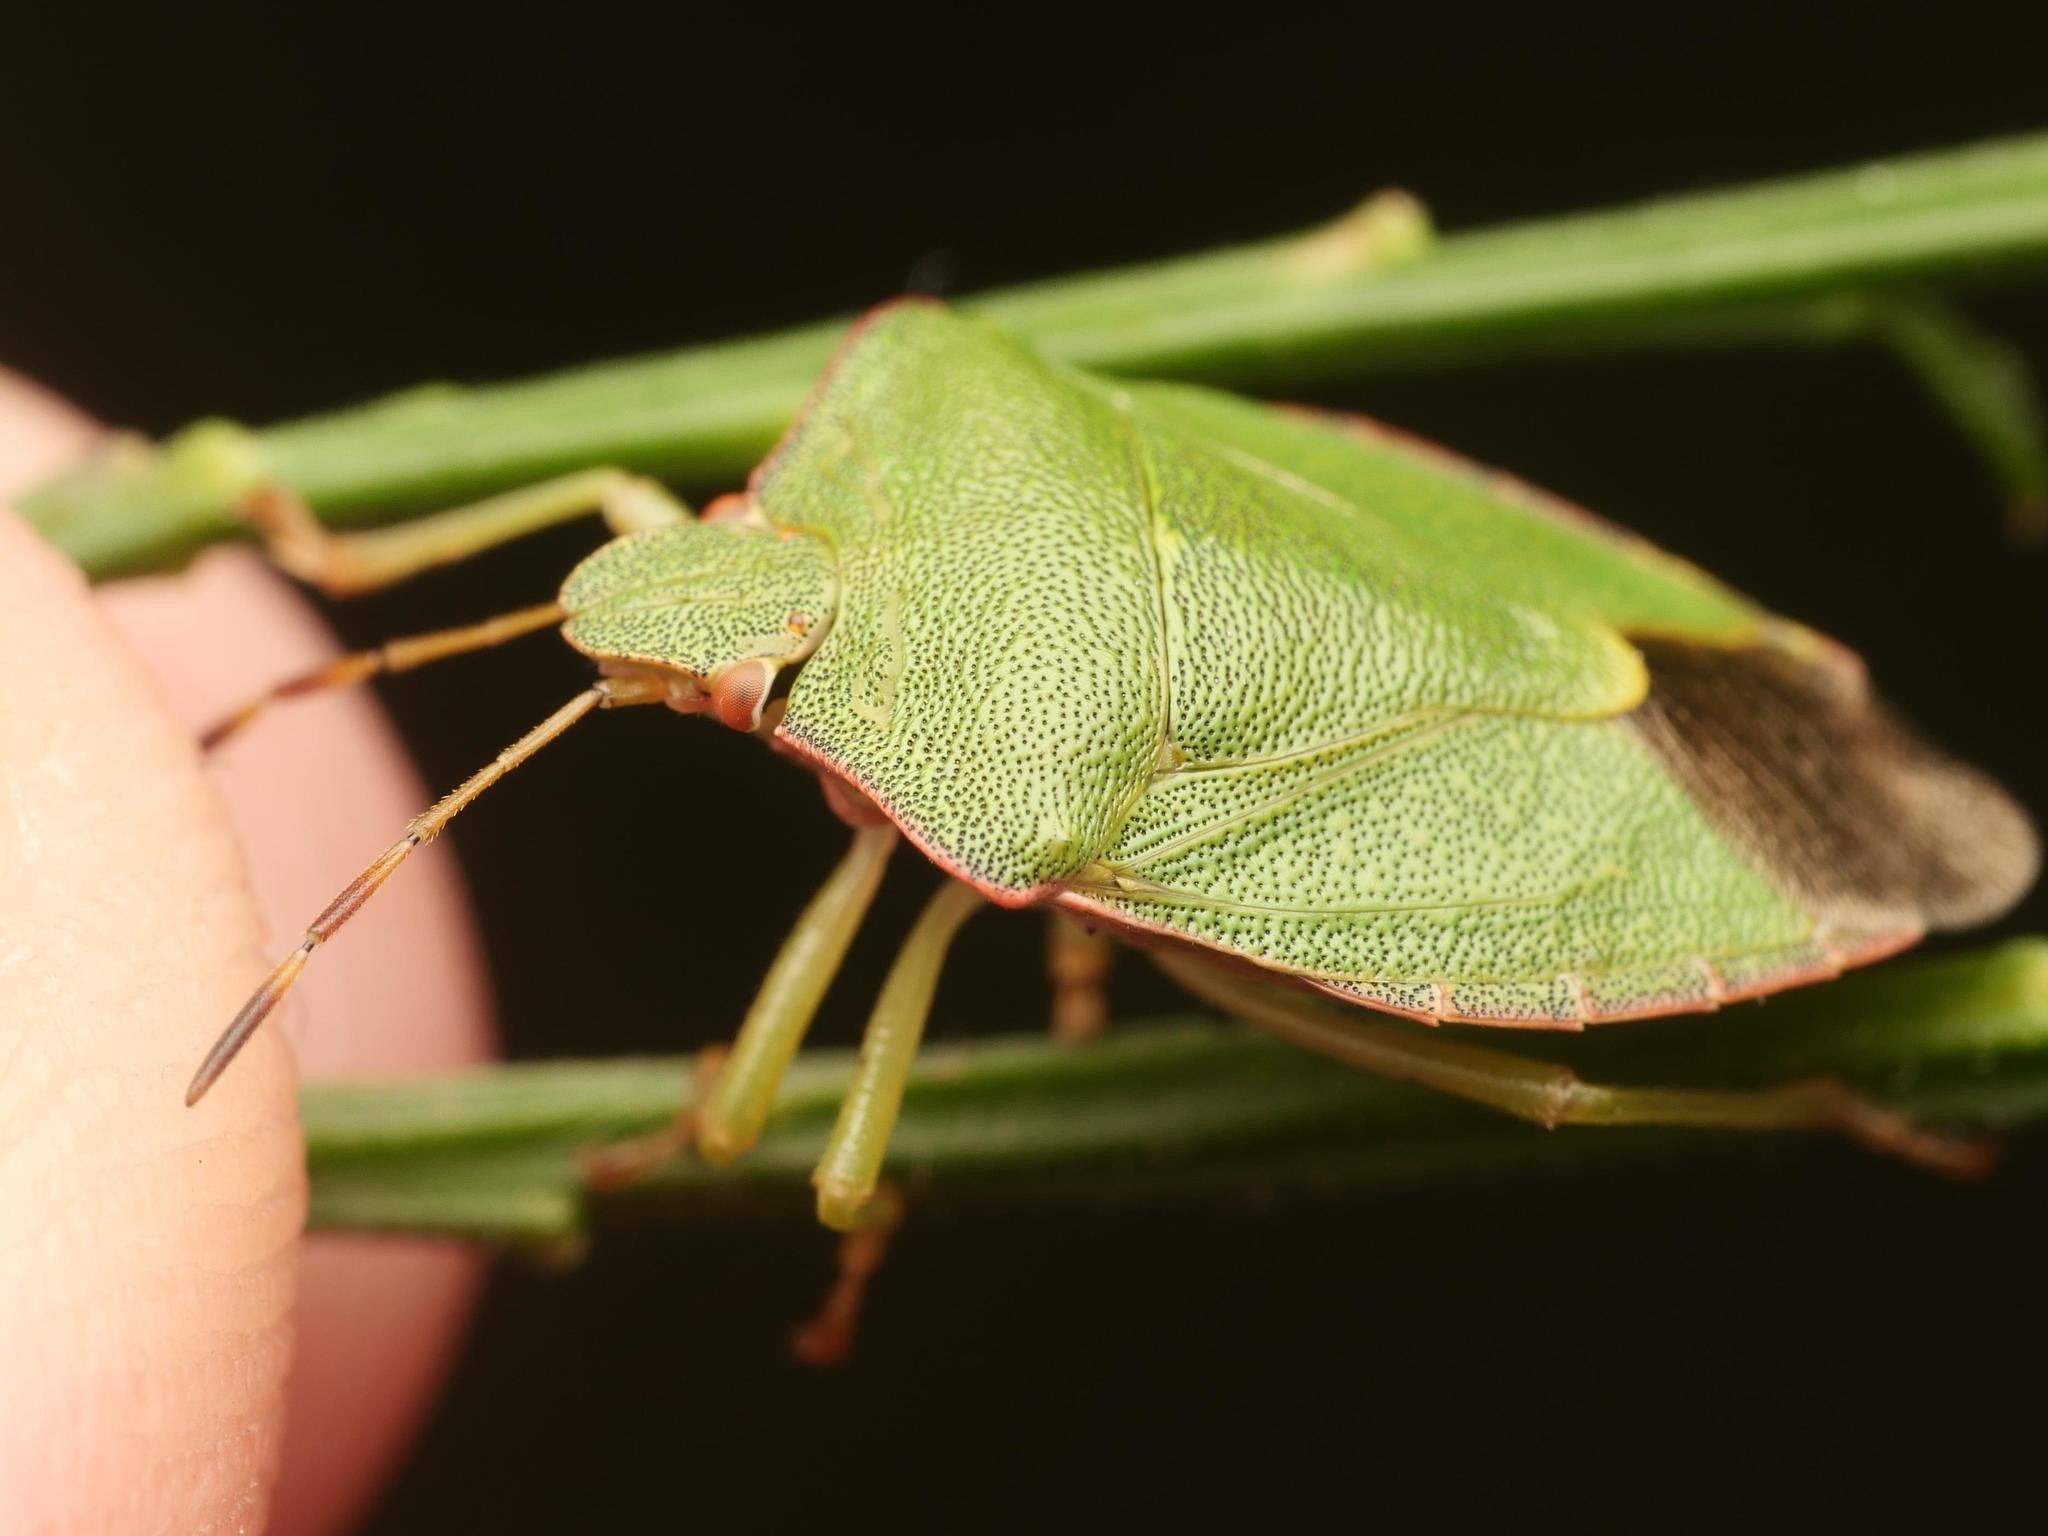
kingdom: Animalia
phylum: Arthropoda
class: Insecta
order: Hemiptera
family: Pentatomidae
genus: Palomena
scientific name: Palomena prasina
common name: Green shieldbug
